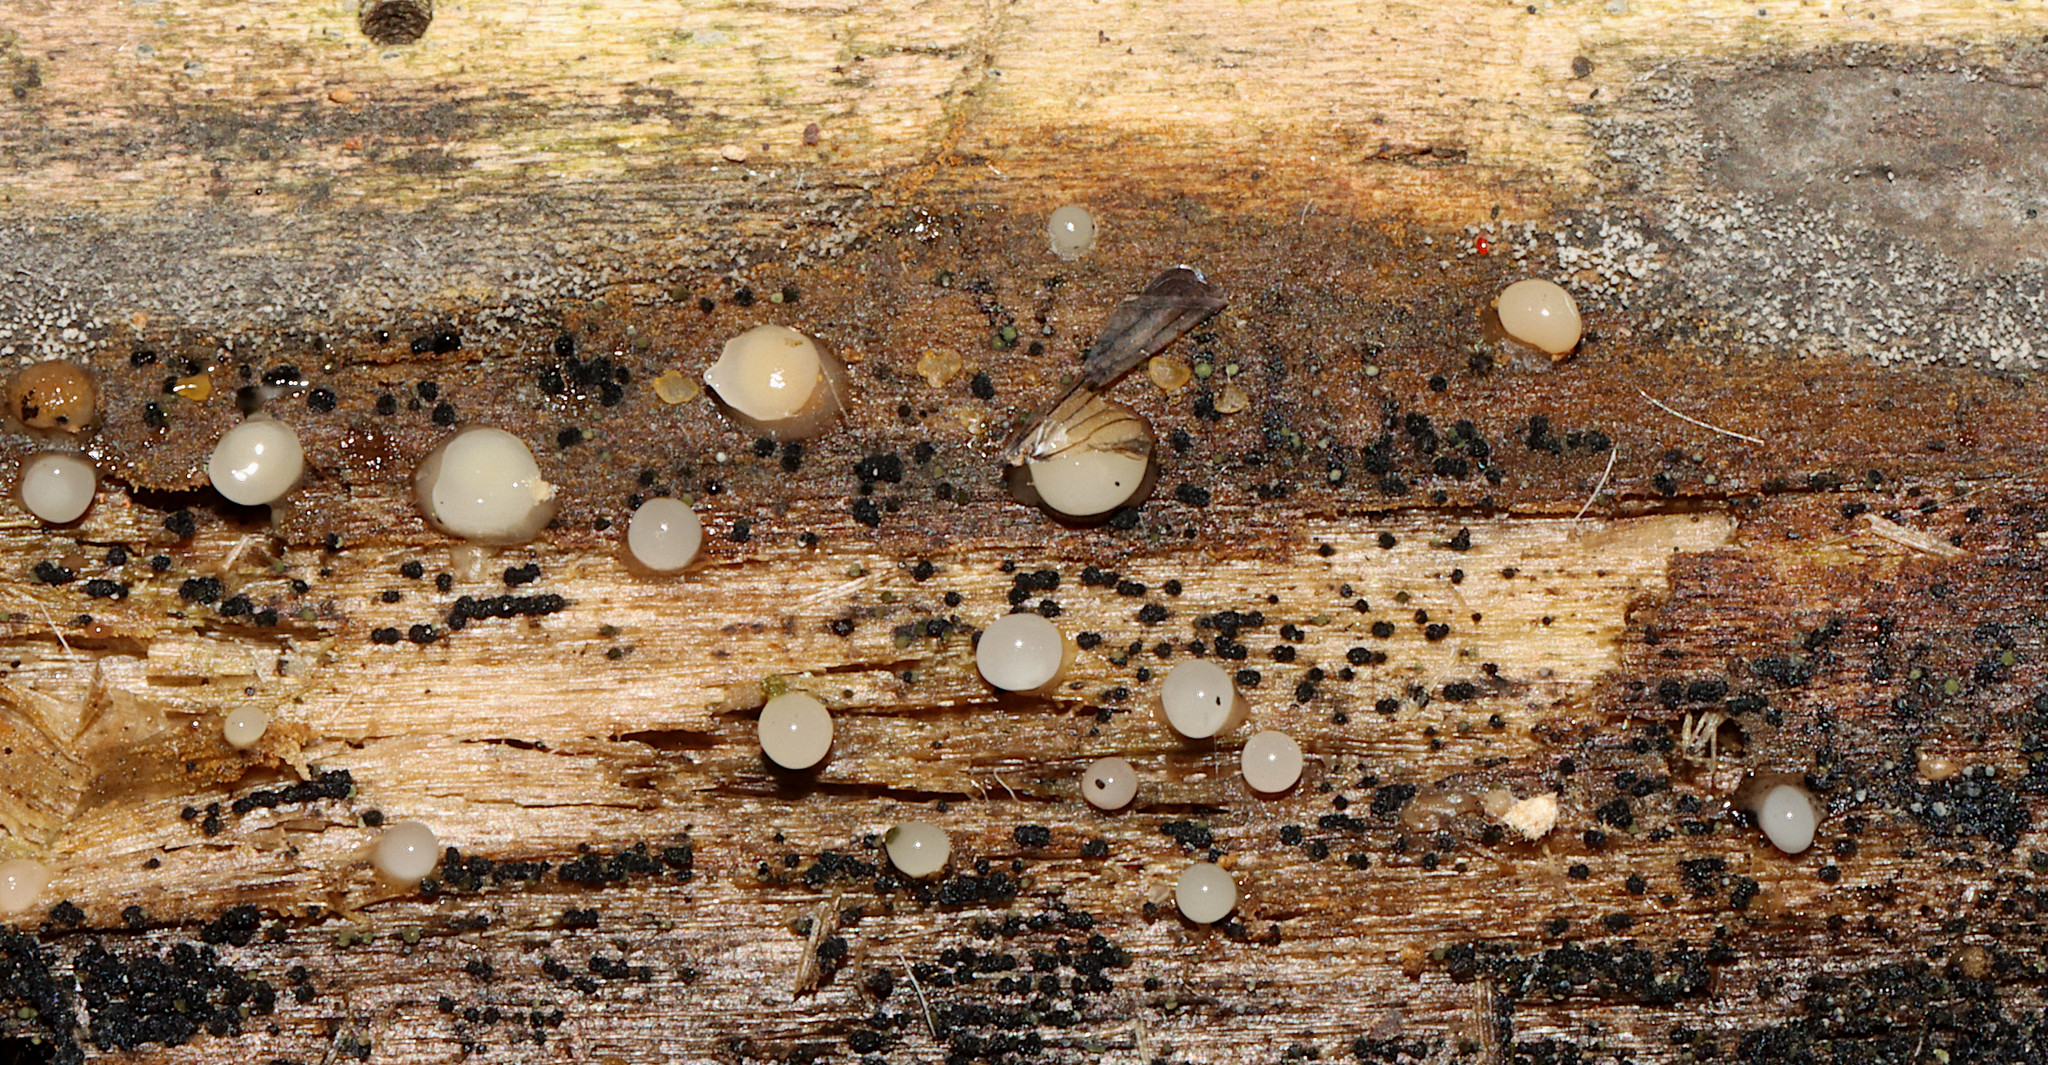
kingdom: Fungi
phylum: Basidiomycota
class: Atractiellomycetes
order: Atractiellales
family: Phleogenaceae
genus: Helicogloea
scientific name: Helicogloea compressa
